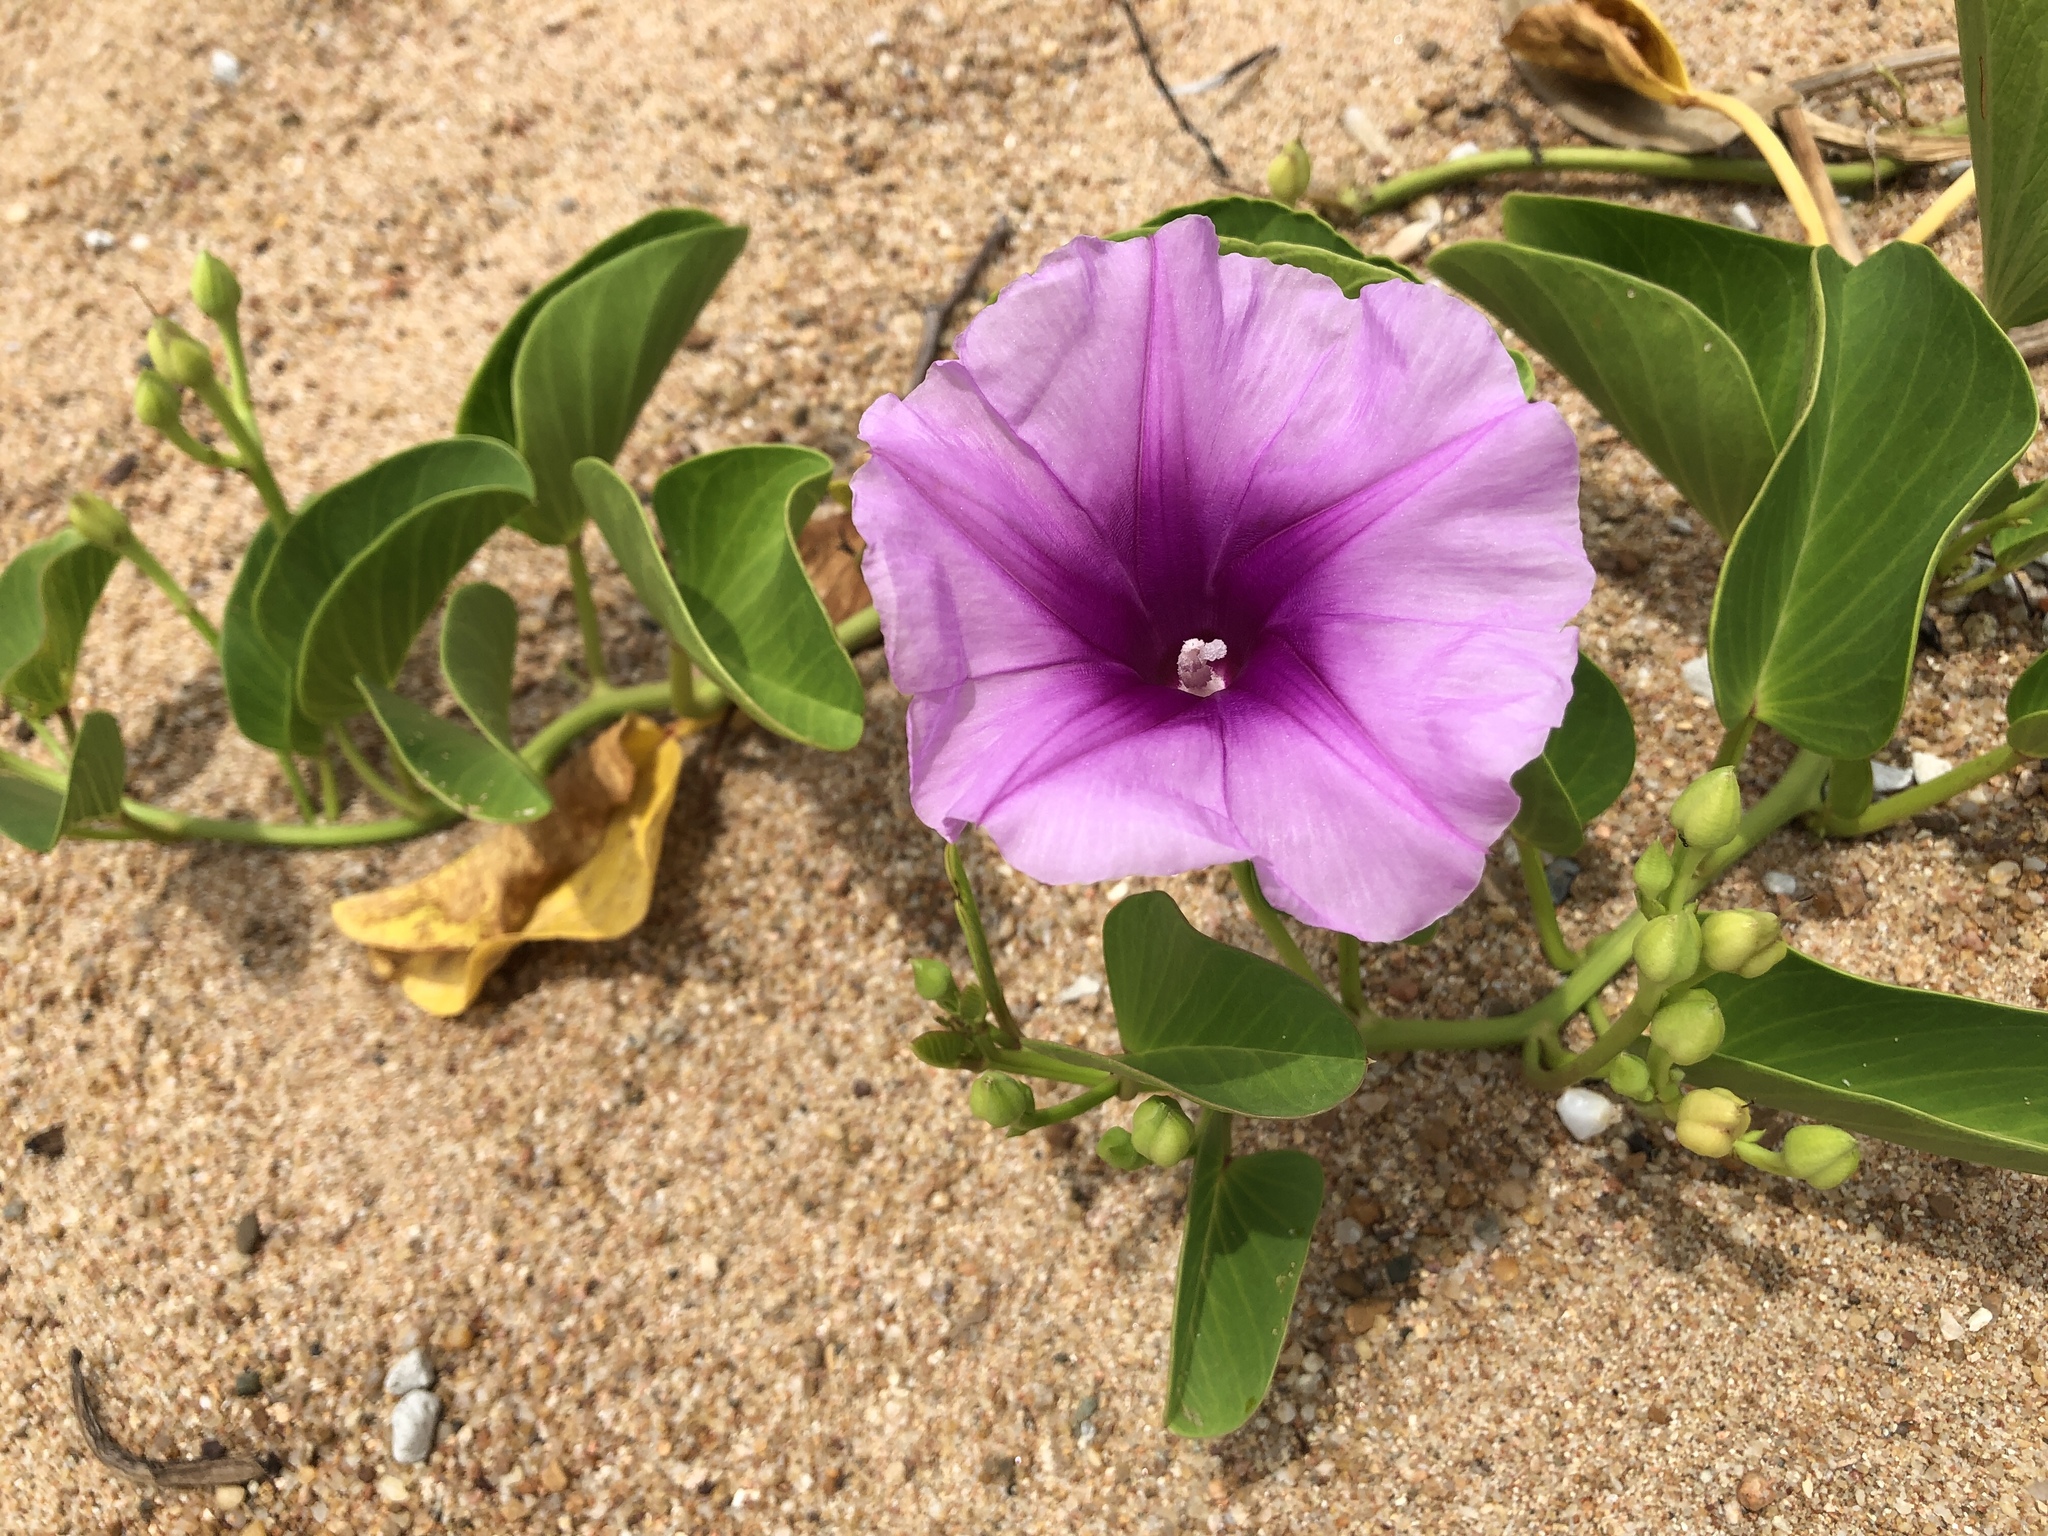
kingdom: Plantae
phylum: Tracheophyta
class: Magnoliopsida
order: Solanales
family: Convolvulaceae
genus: Ipomoea
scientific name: Ipomoea pes-caprae
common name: Beach morning glory
